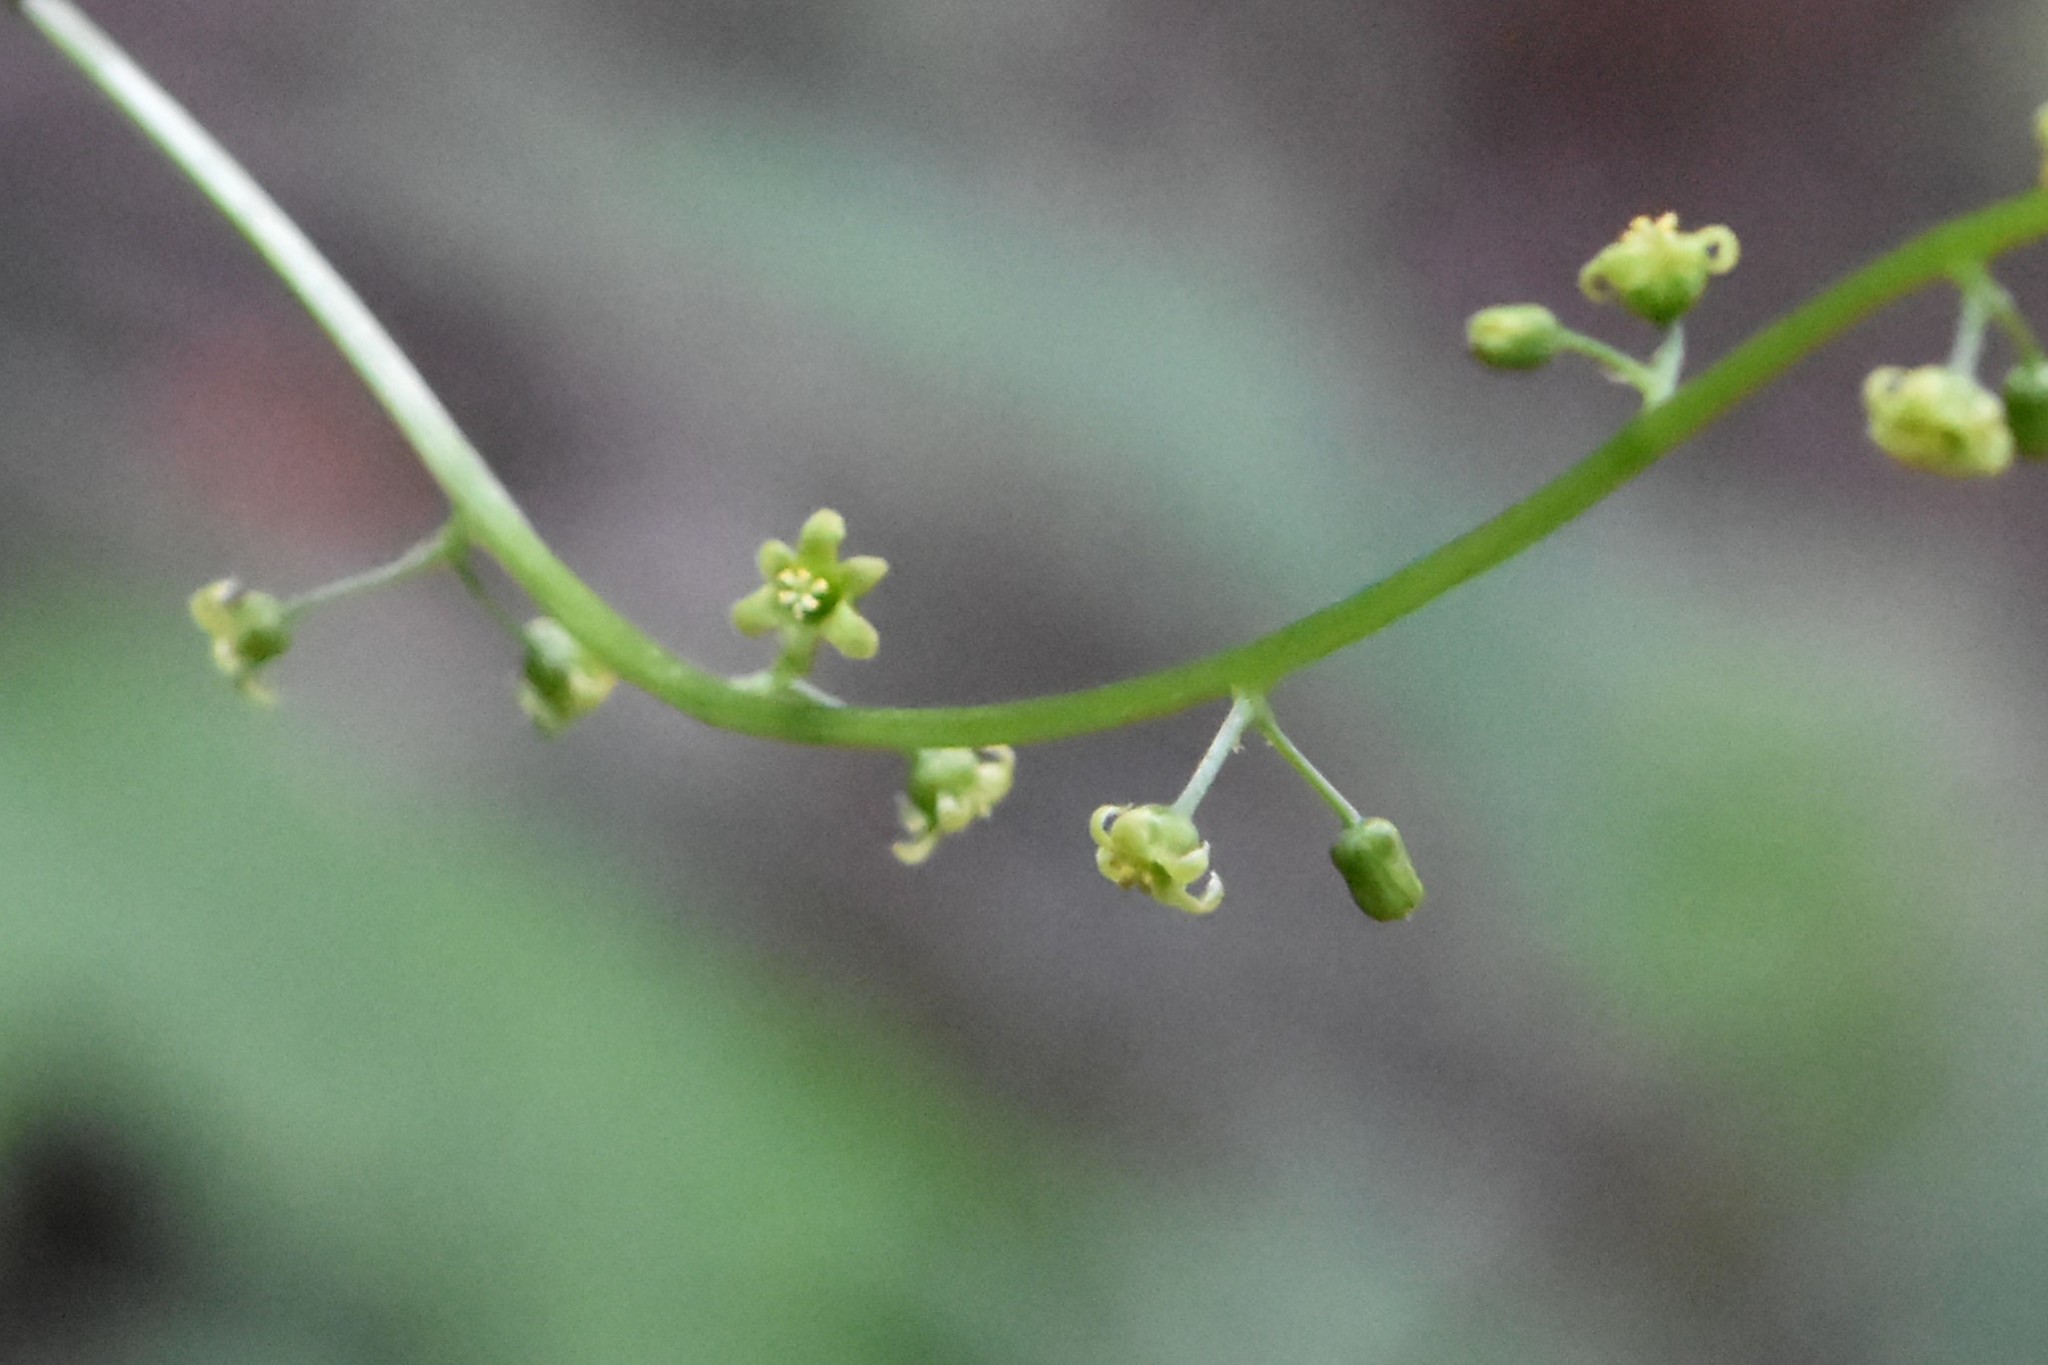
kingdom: Plantae
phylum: Tracheophyta
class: Liliopsida
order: Dioscoreales
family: Dioscoreaceae
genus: Dioscorea
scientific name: Dioscorea communis
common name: Black-bindweed
